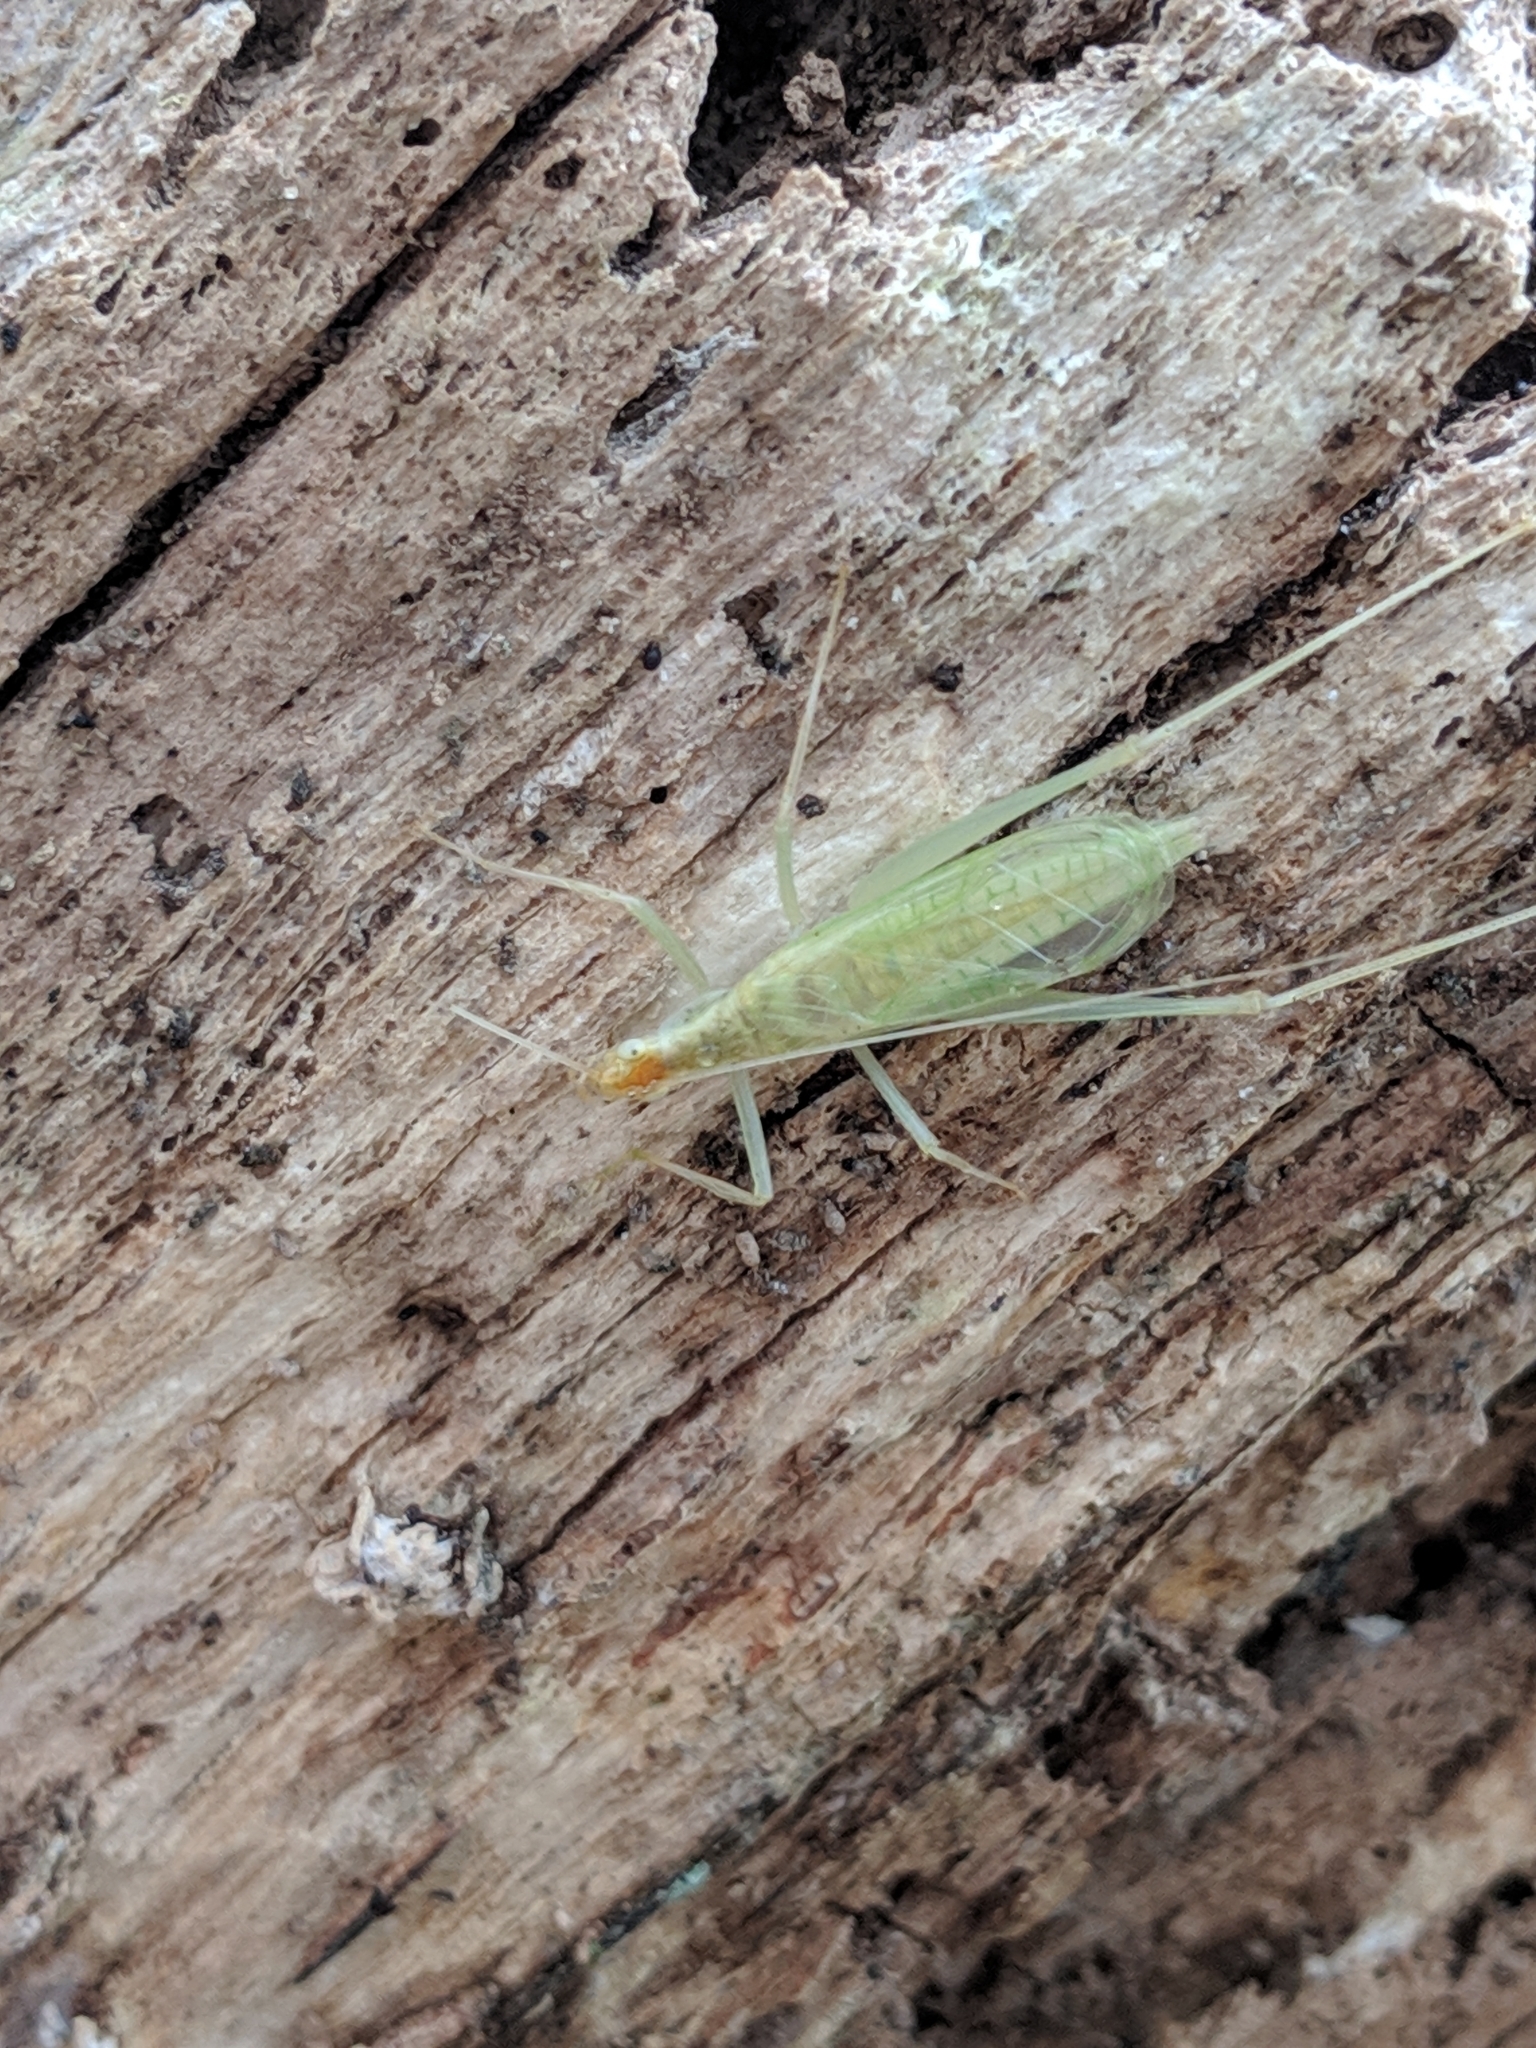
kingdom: Animalia
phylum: Arthropoda
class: Insecta
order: Orthoptera
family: Gryllidae
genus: Oecanthus
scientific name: Oecanthus niveus
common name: Narrow-winged tree cricket
